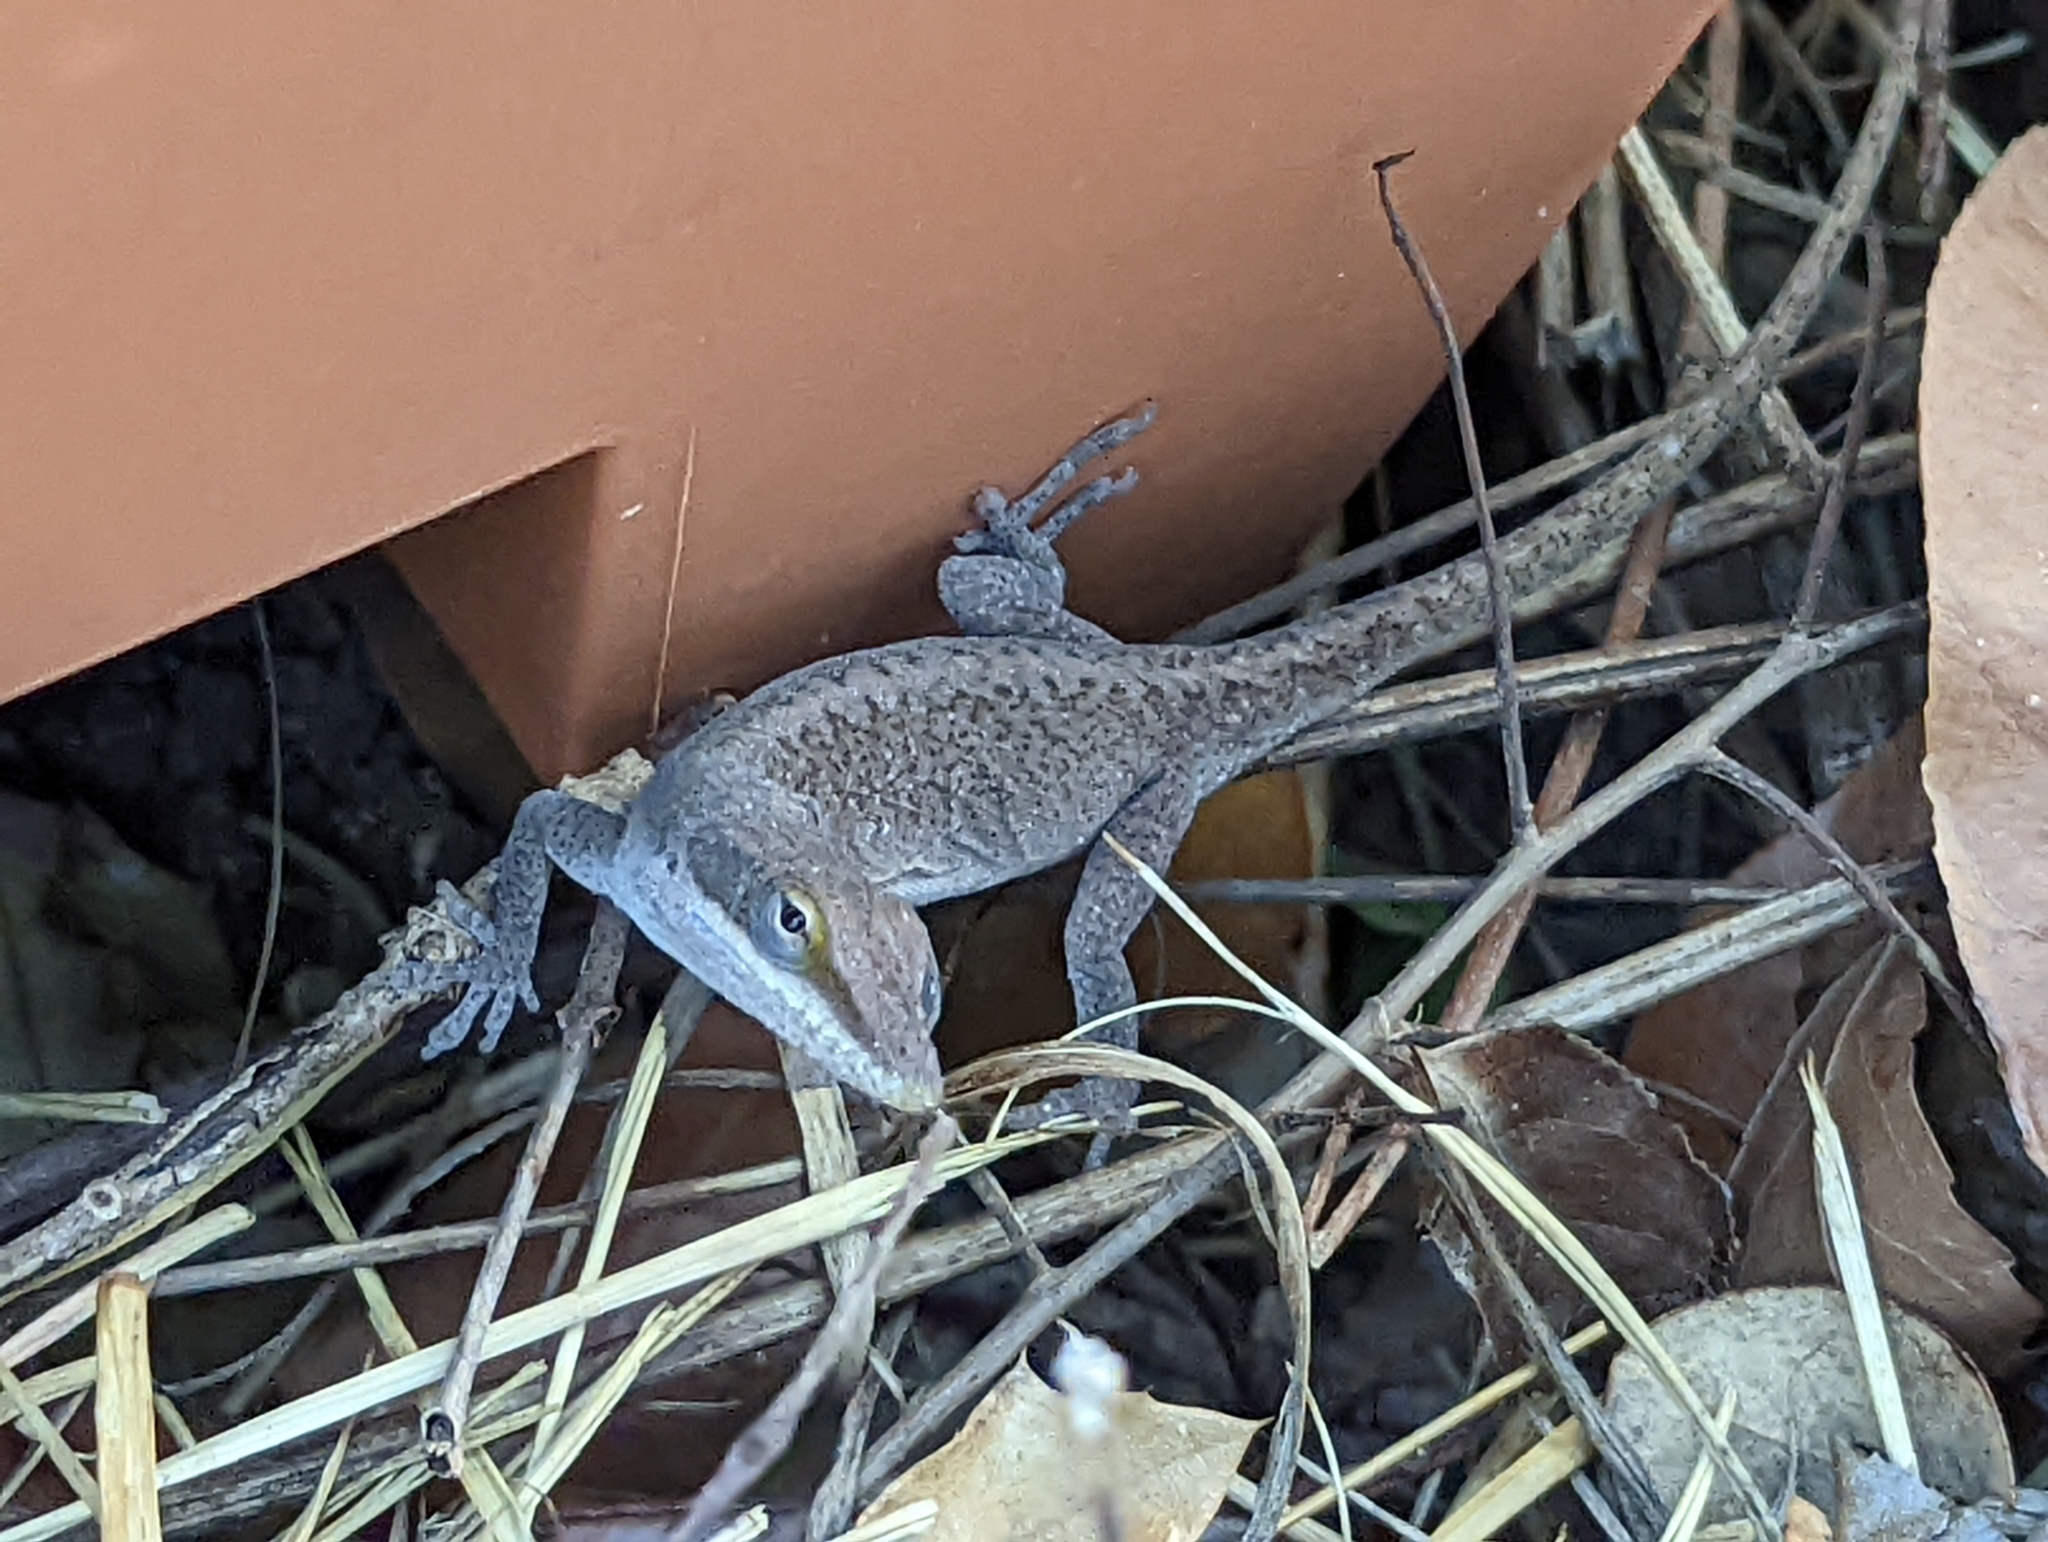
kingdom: Animalia
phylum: Chordata
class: Squamata
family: Dactyloidae
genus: Anolis
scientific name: Anolis carolinensis
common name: Green anole
